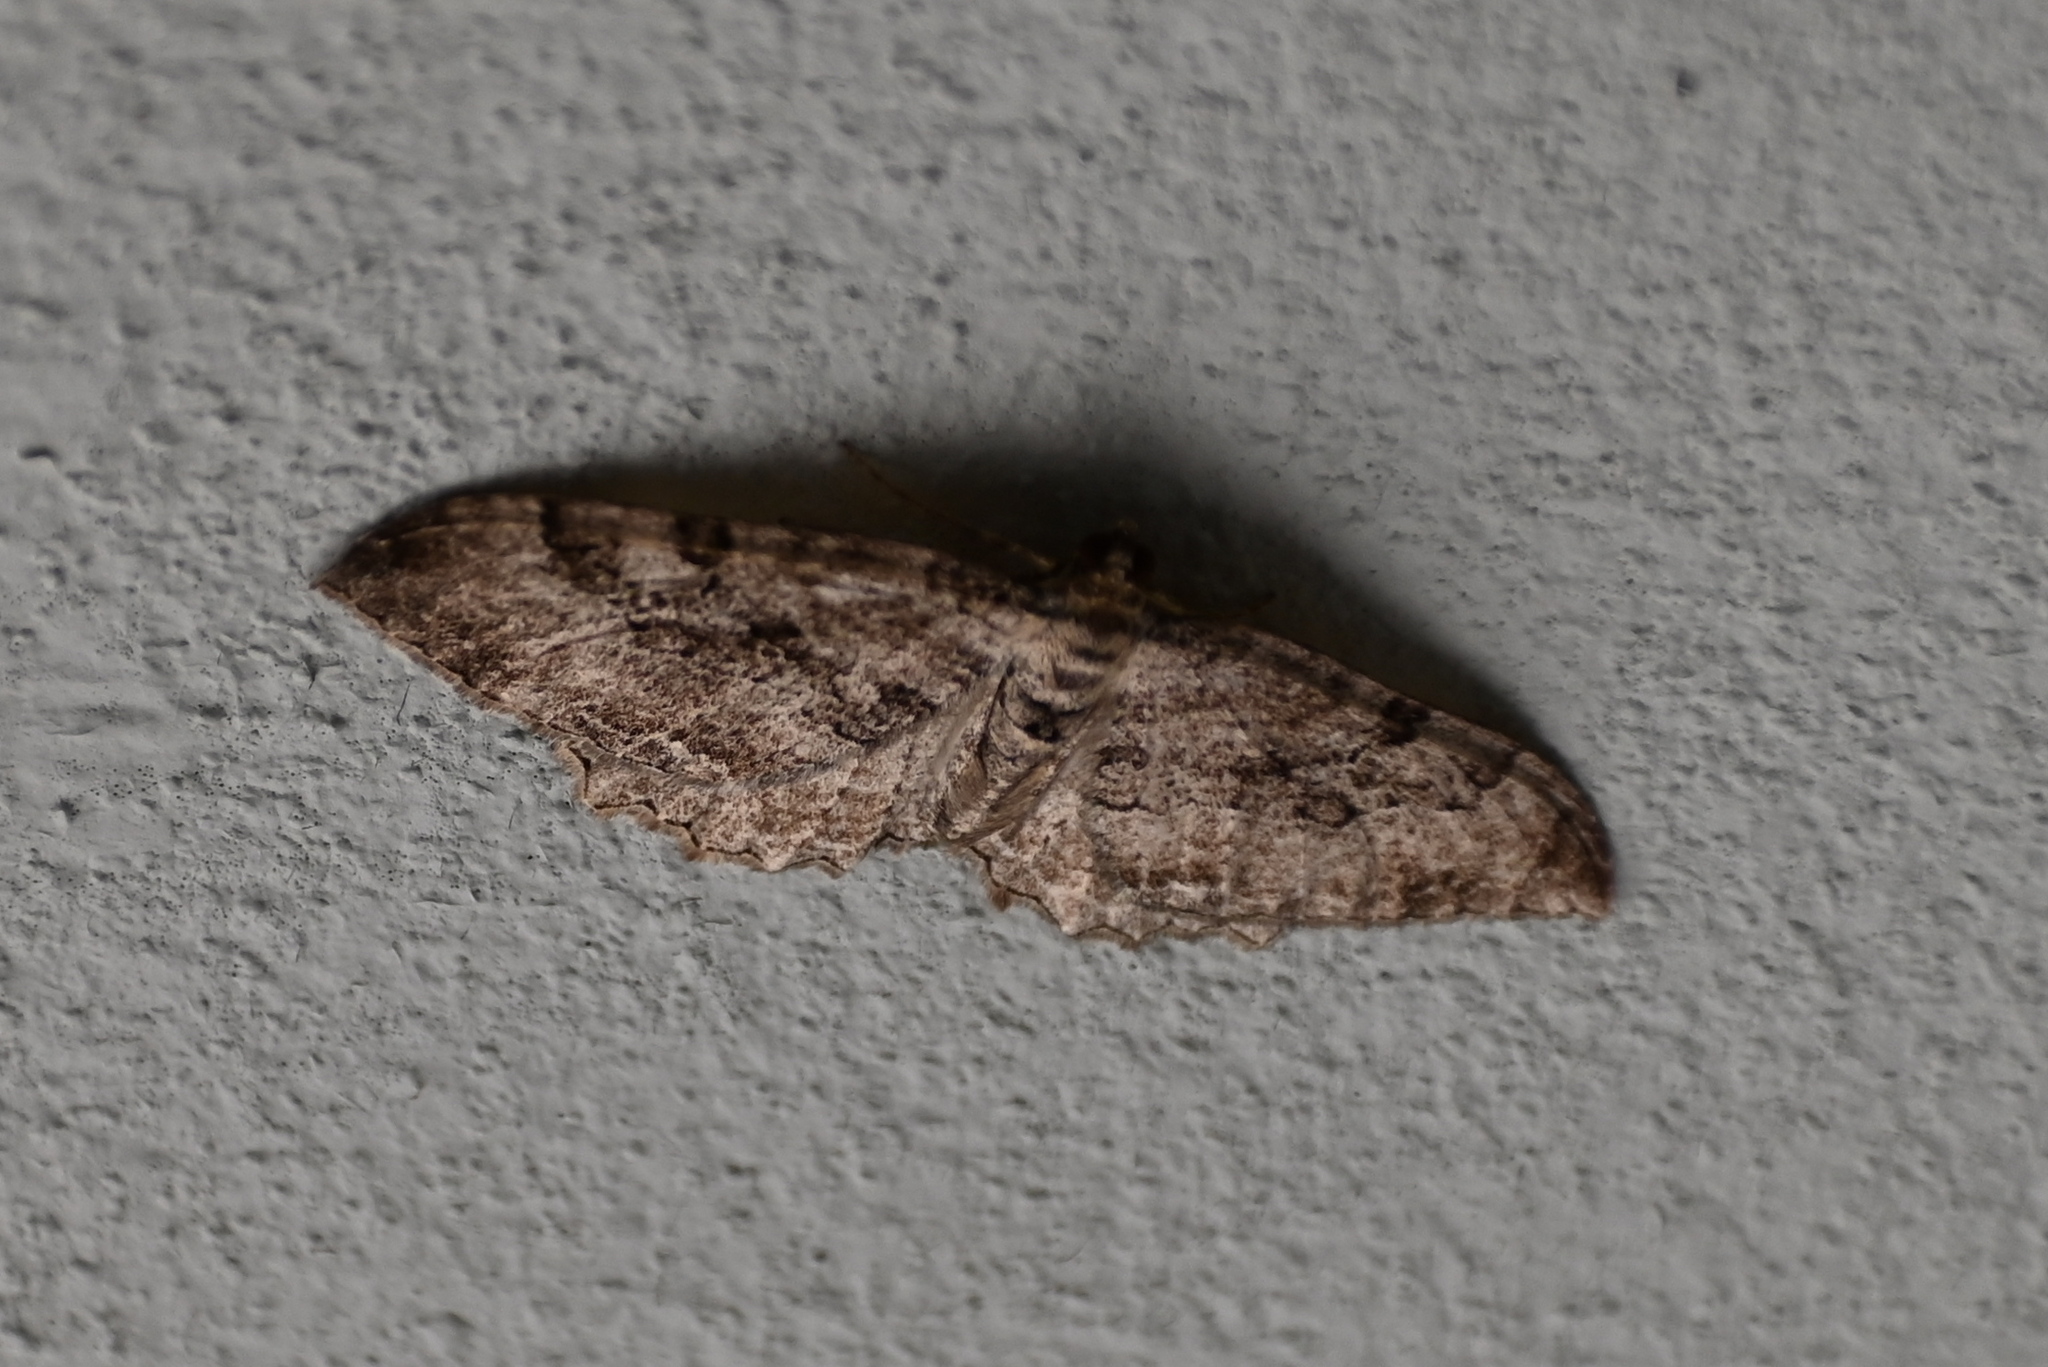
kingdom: Animalia
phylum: Arthropoda
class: Insecta
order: Lepidoptera
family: Geometridae
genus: Rheumaptera
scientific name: Rheumaptera Hydria cervinalis
